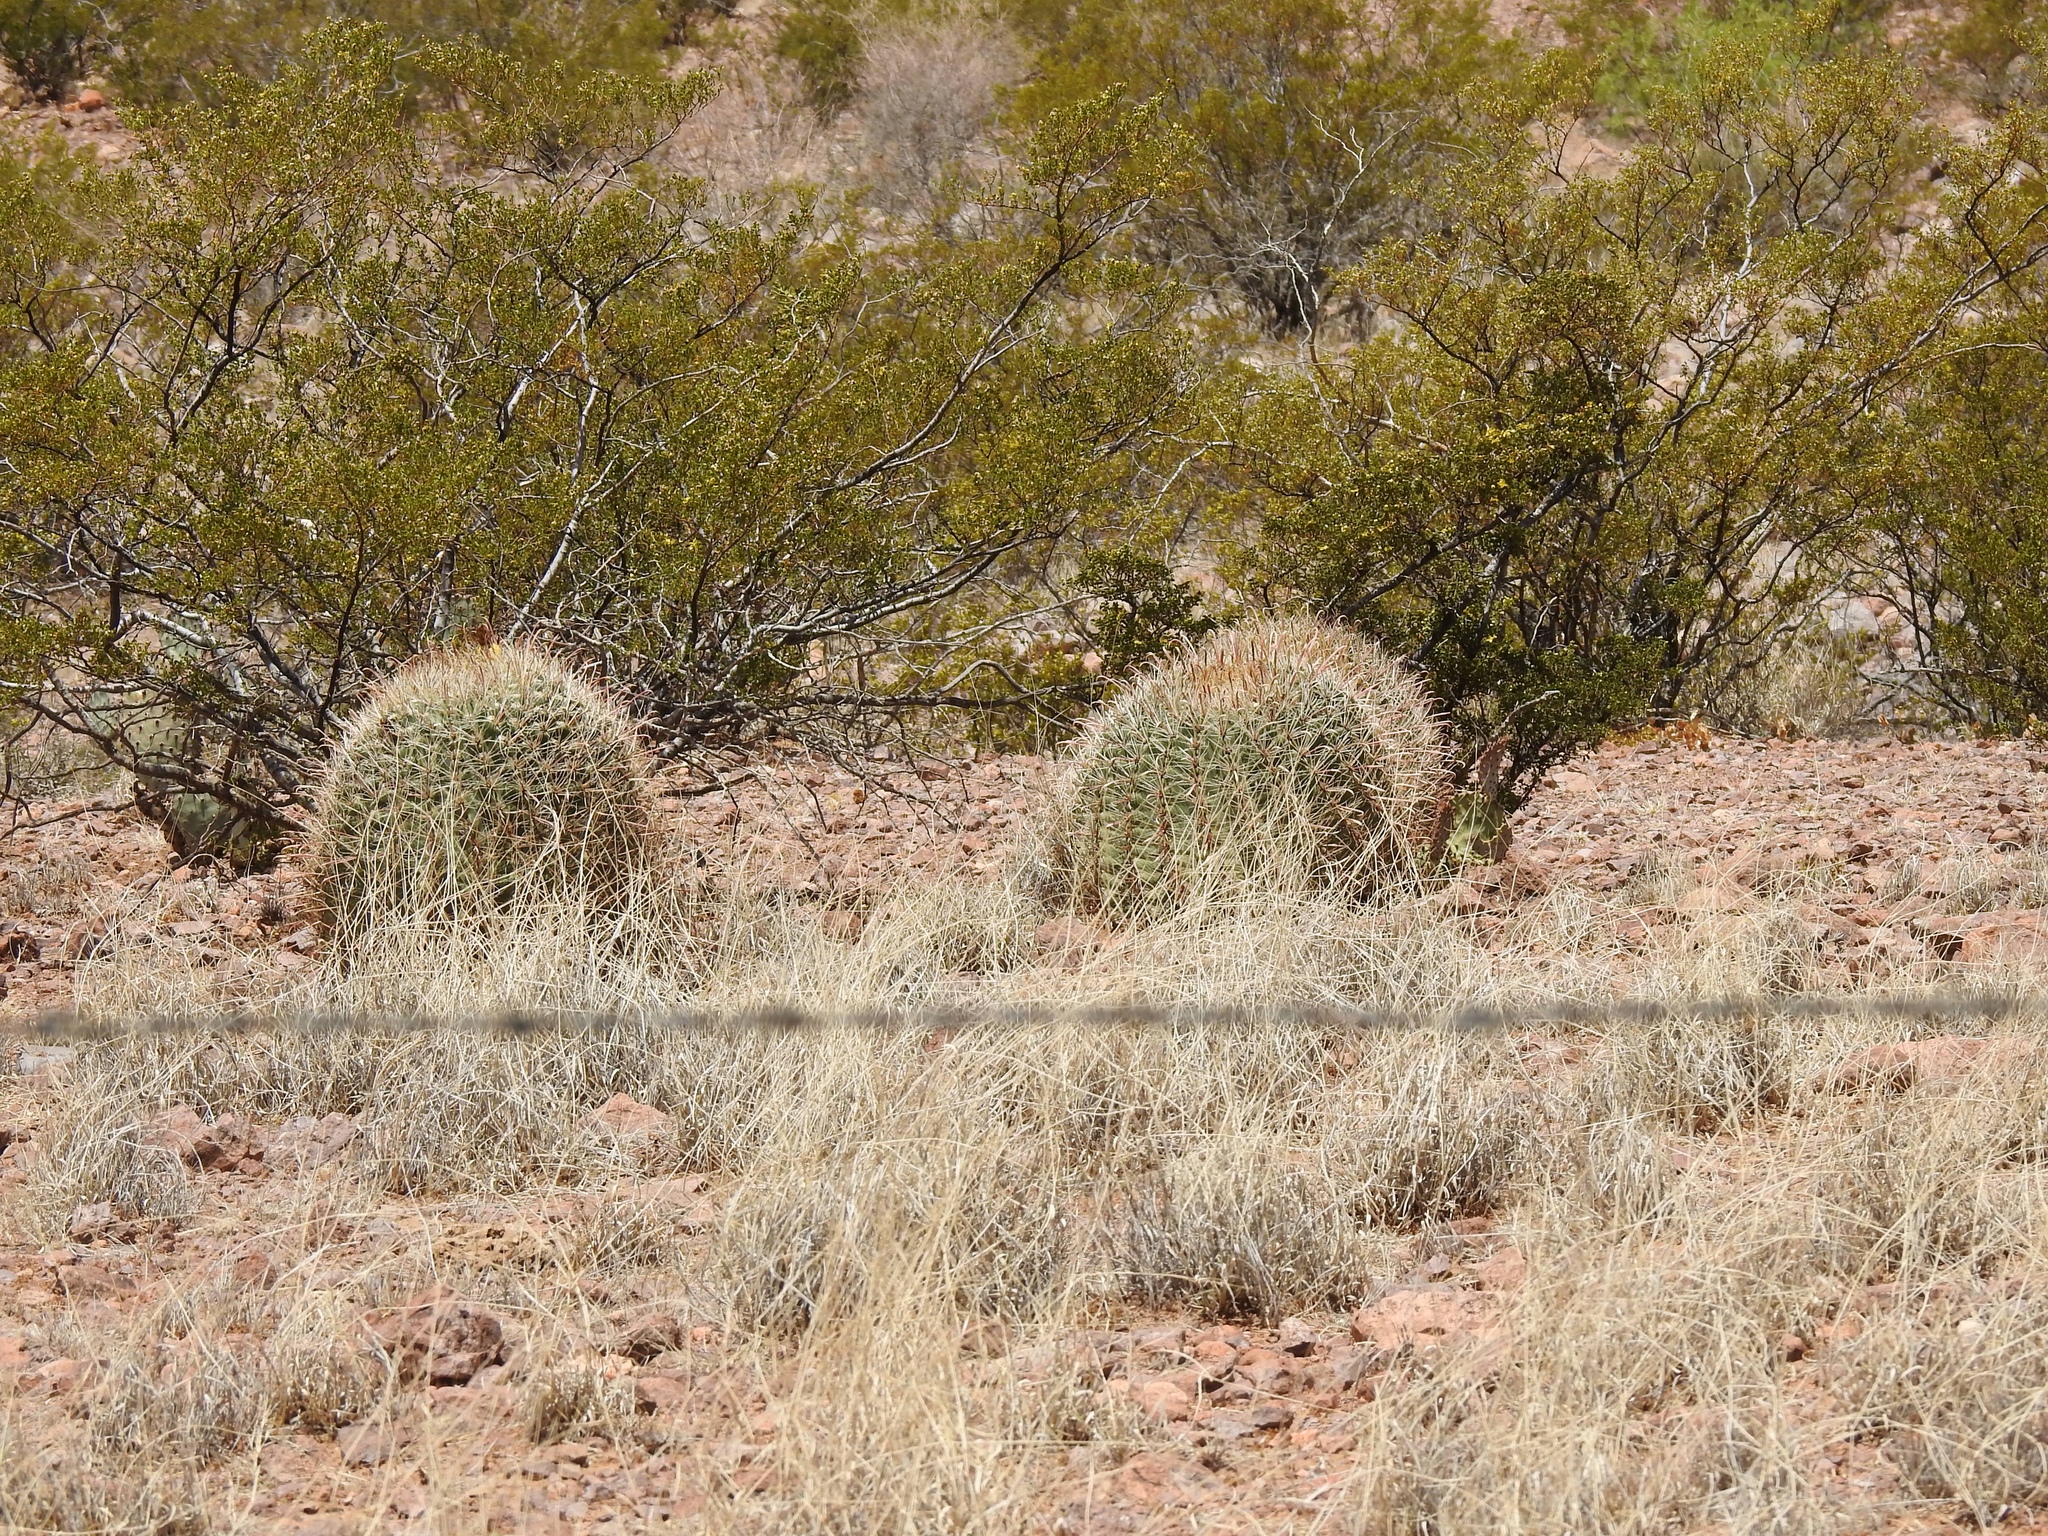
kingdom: Plantae
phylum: Tracheophyta
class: Magnoliopsida
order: Caryophyllales
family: Cactaceae
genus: Ferocactus
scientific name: Ferocactus wislizeni
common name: Candy barrel cactus
